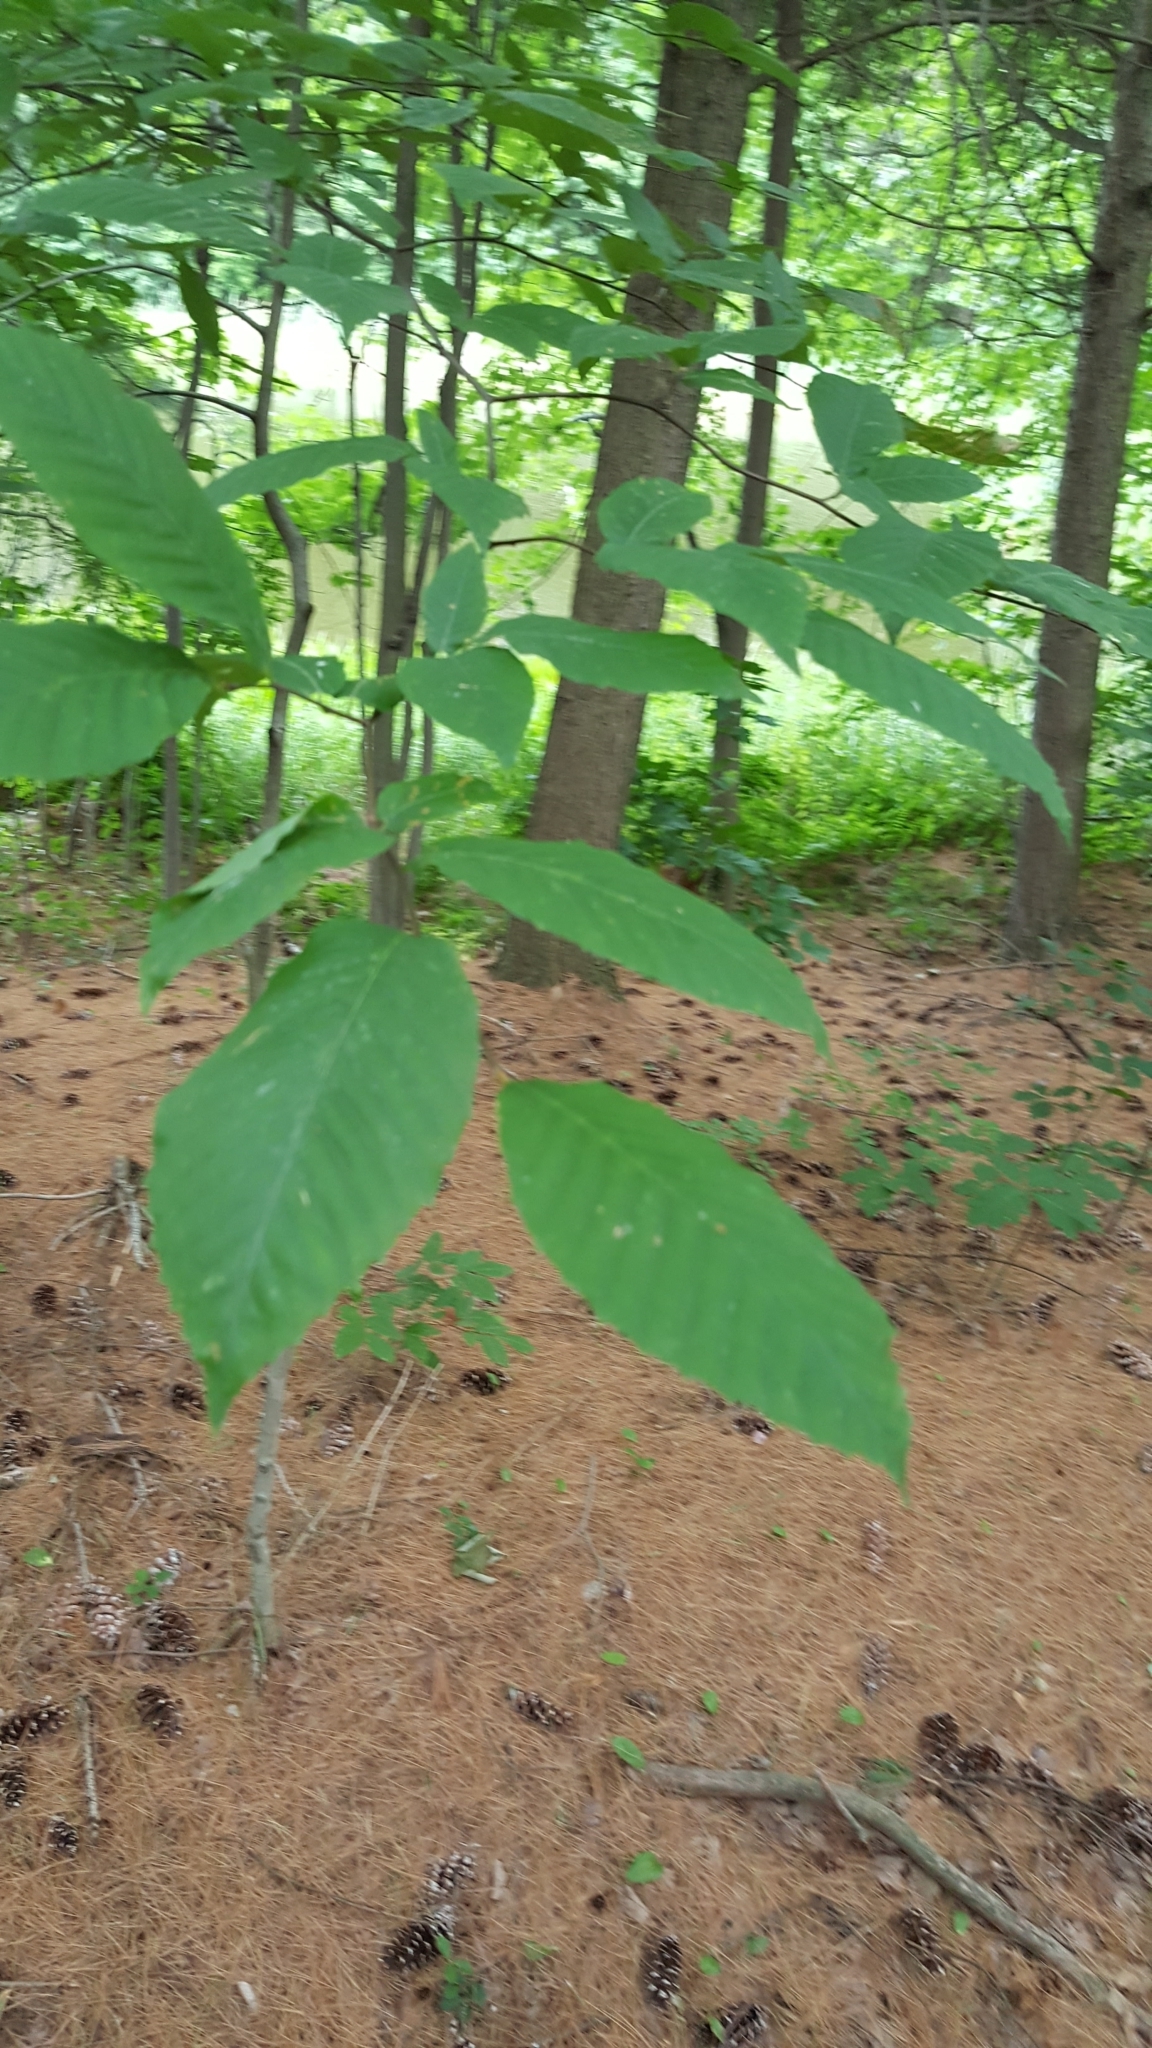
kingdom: Plantae
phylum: Tracheophyta
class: Magnoliopsida
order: Fagales
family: Fagaceae
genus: Fagus
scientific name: Fagus grandifolia
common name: American beech
